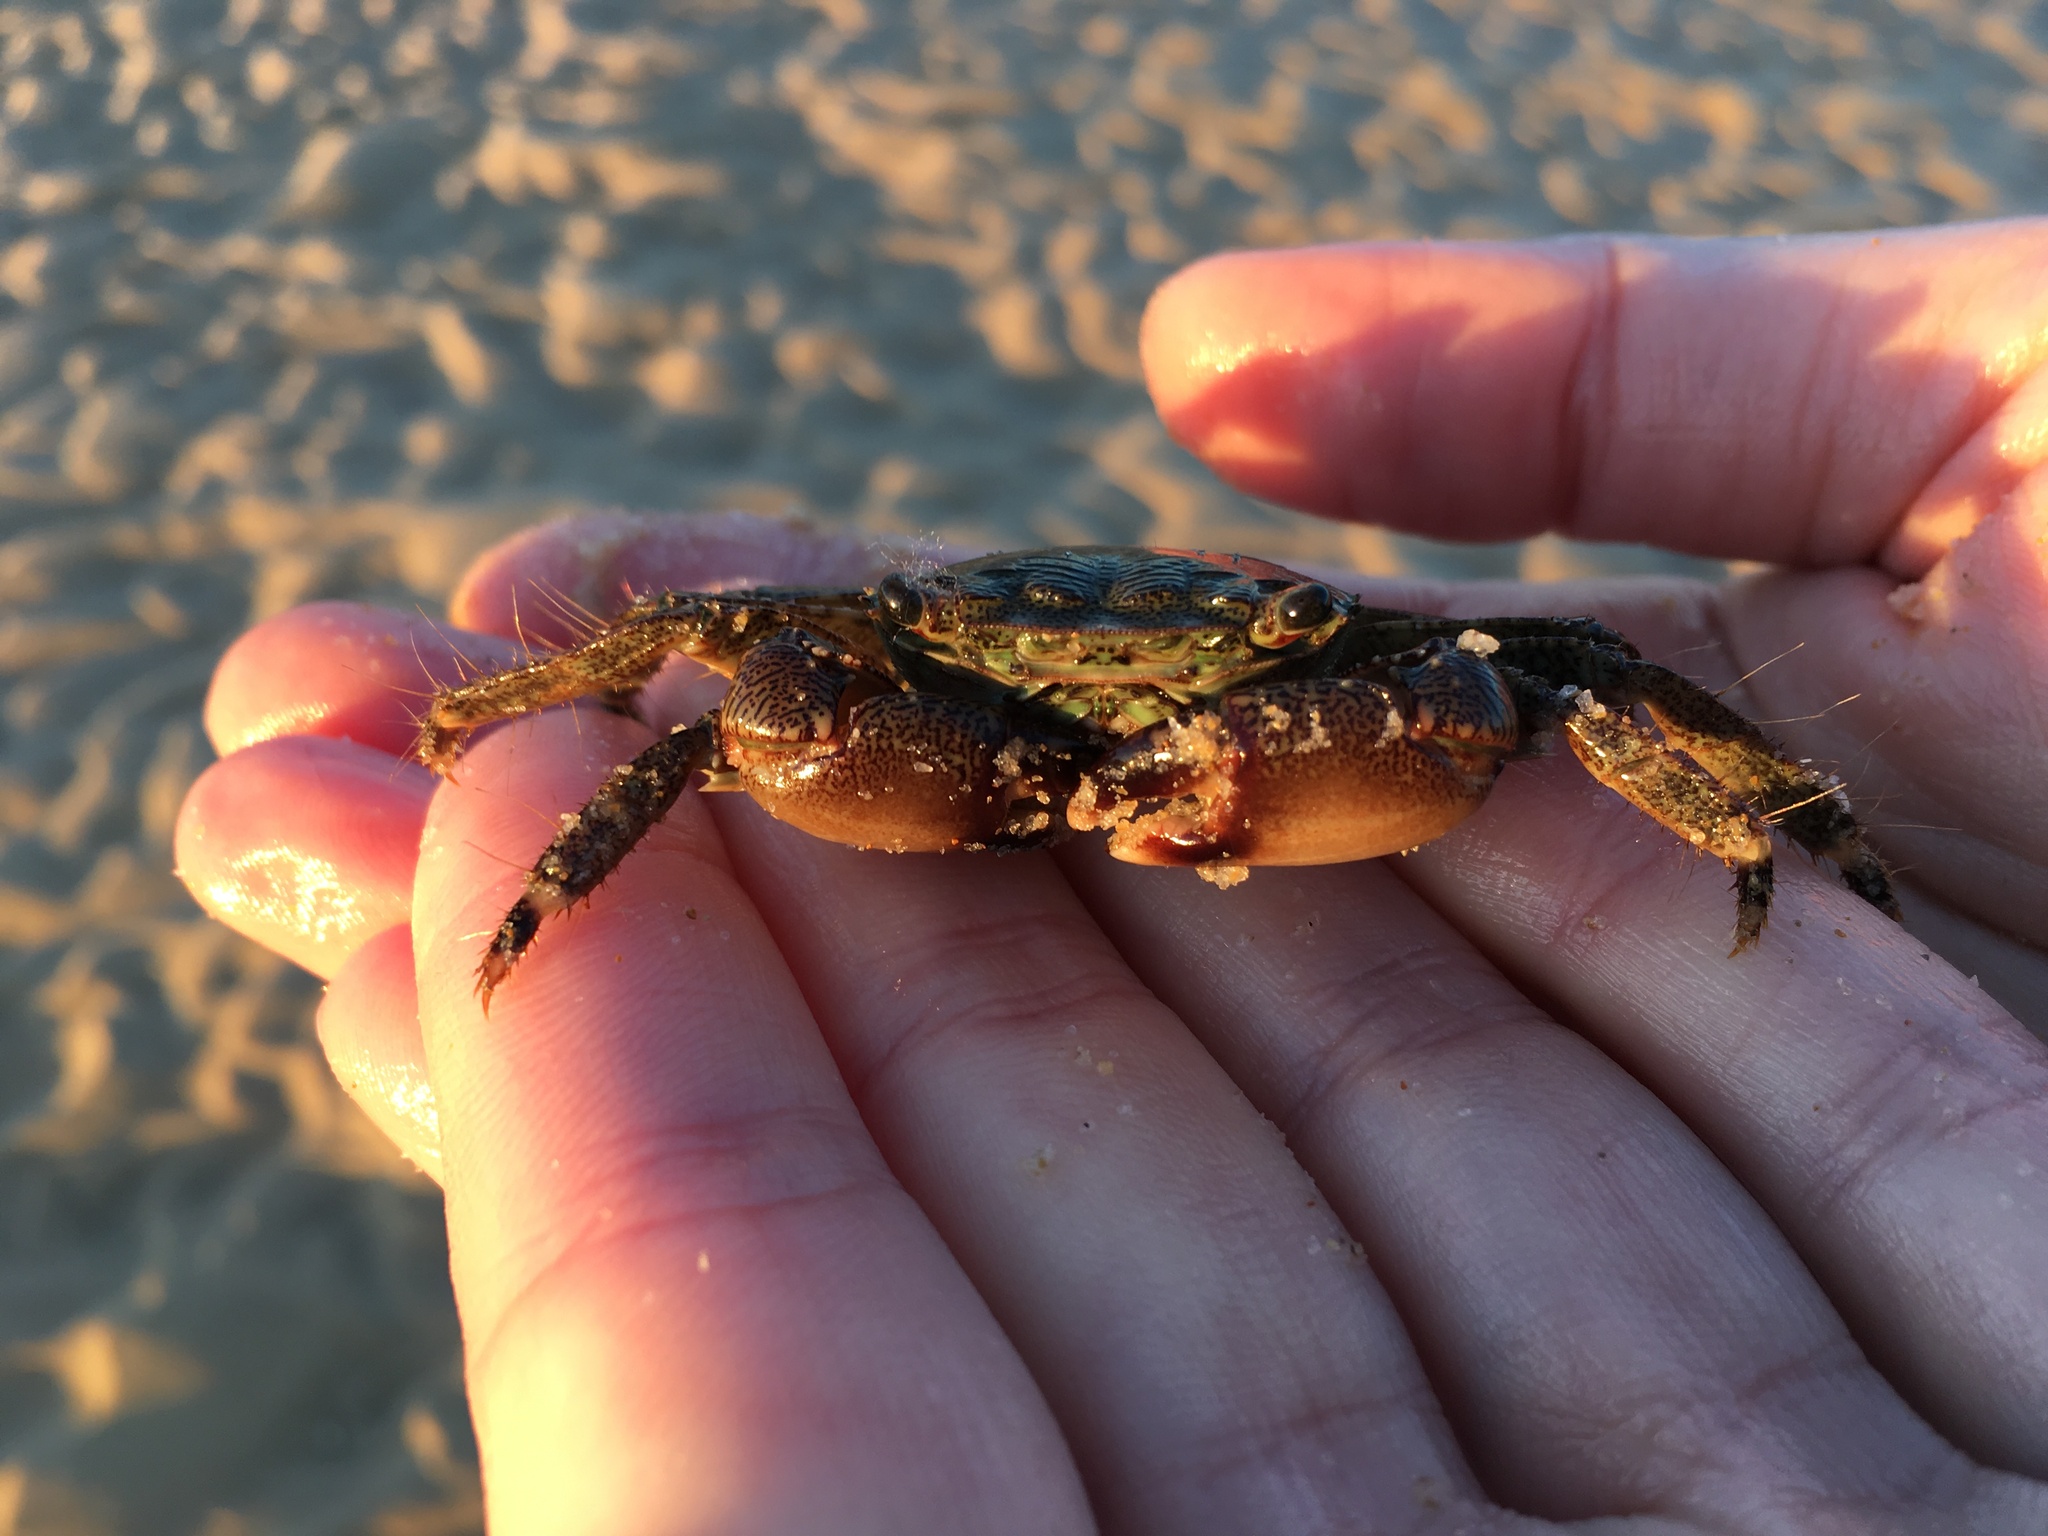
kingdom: Animalia
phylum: Arthropoda
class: Malacostraca
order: Decapoda
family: Grapsidae
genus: Pachygrapsus
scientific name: Pachygrapsus marmoratus
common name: Marbled rock crab
